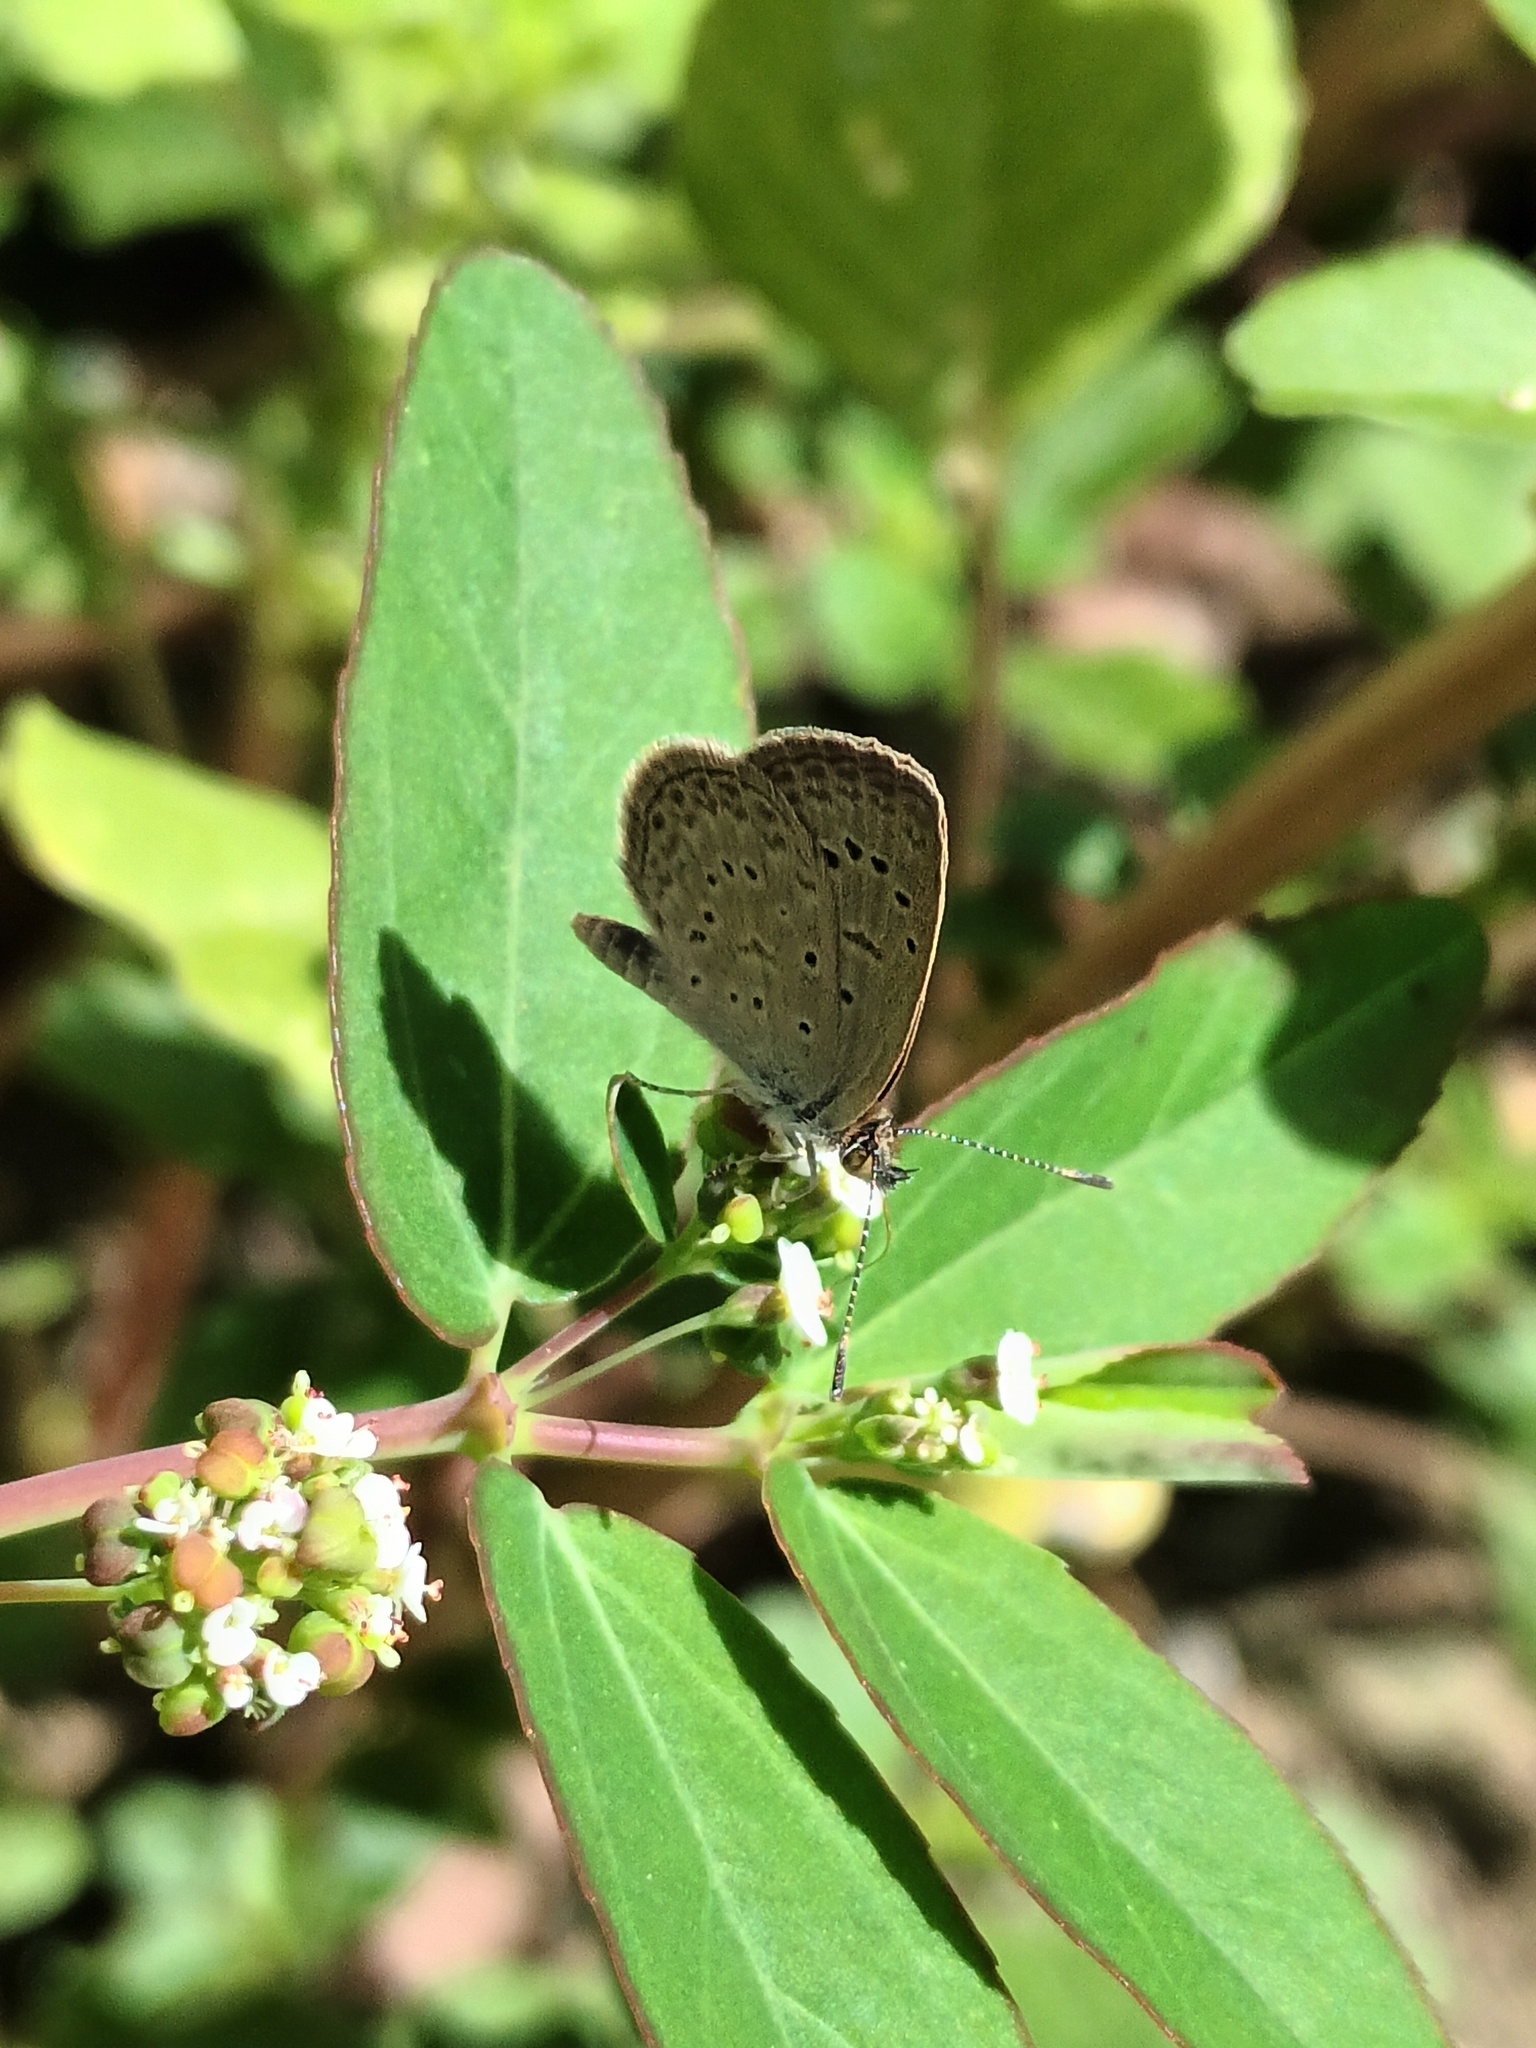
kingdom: Animalia
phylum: Arthropoda
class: Insecta
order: Lepidoptera
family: Lycaenidae
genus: Zizeeria
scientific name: Zizeeria knysna
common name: African grass blue
